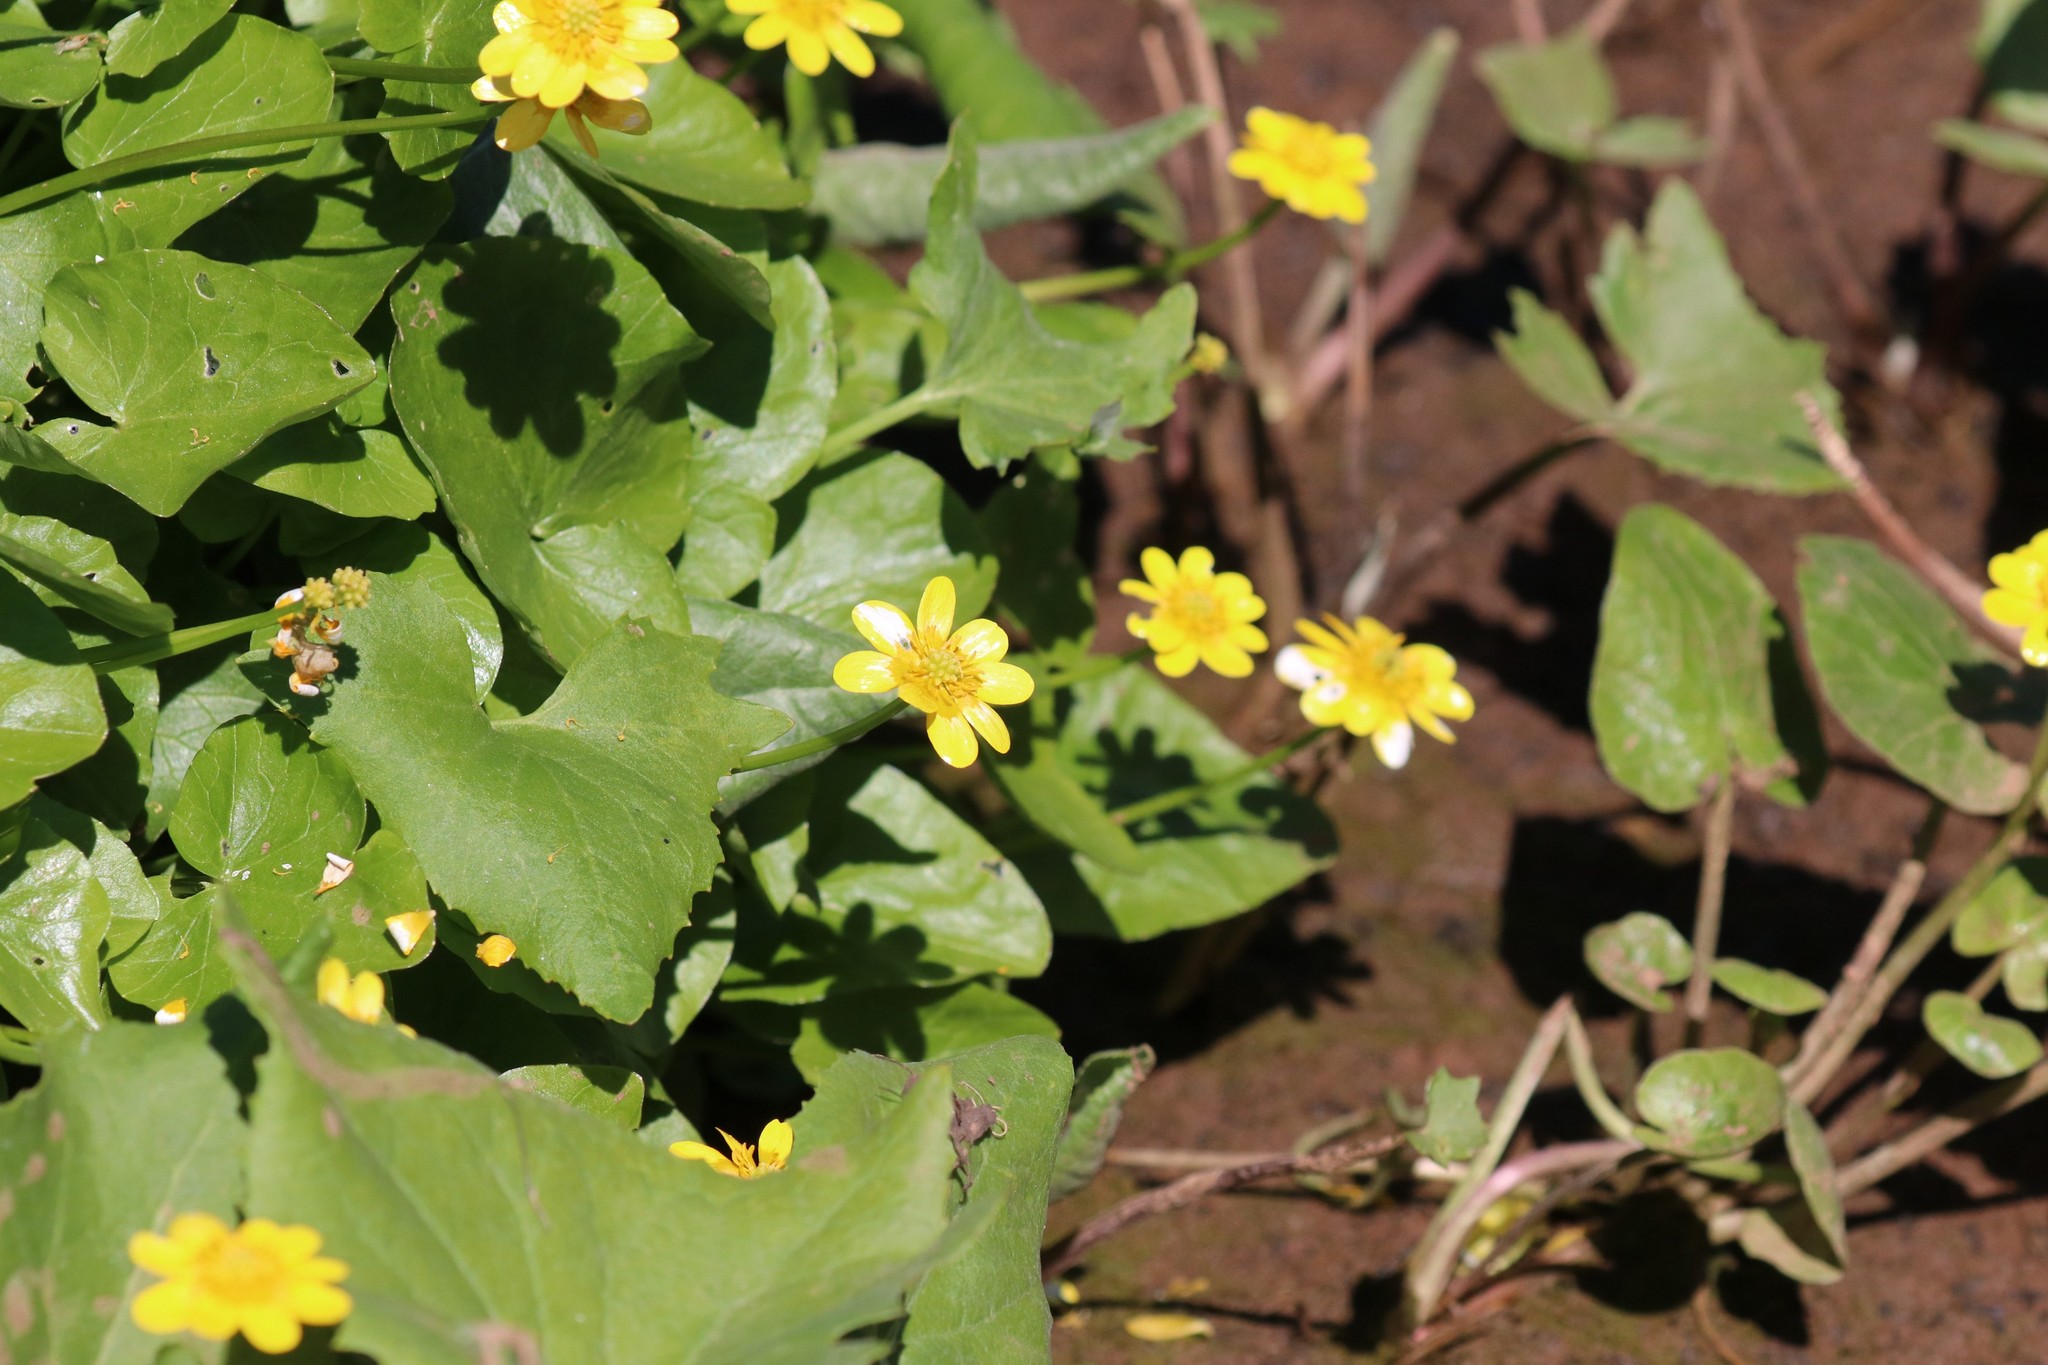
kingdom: Plantae
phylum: Tracheophyta
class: Magnoliopsida
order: Ranunculales
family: Ranunculaceae
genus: Ficaria
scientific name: Ficaria verna
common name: Lesser celandine
